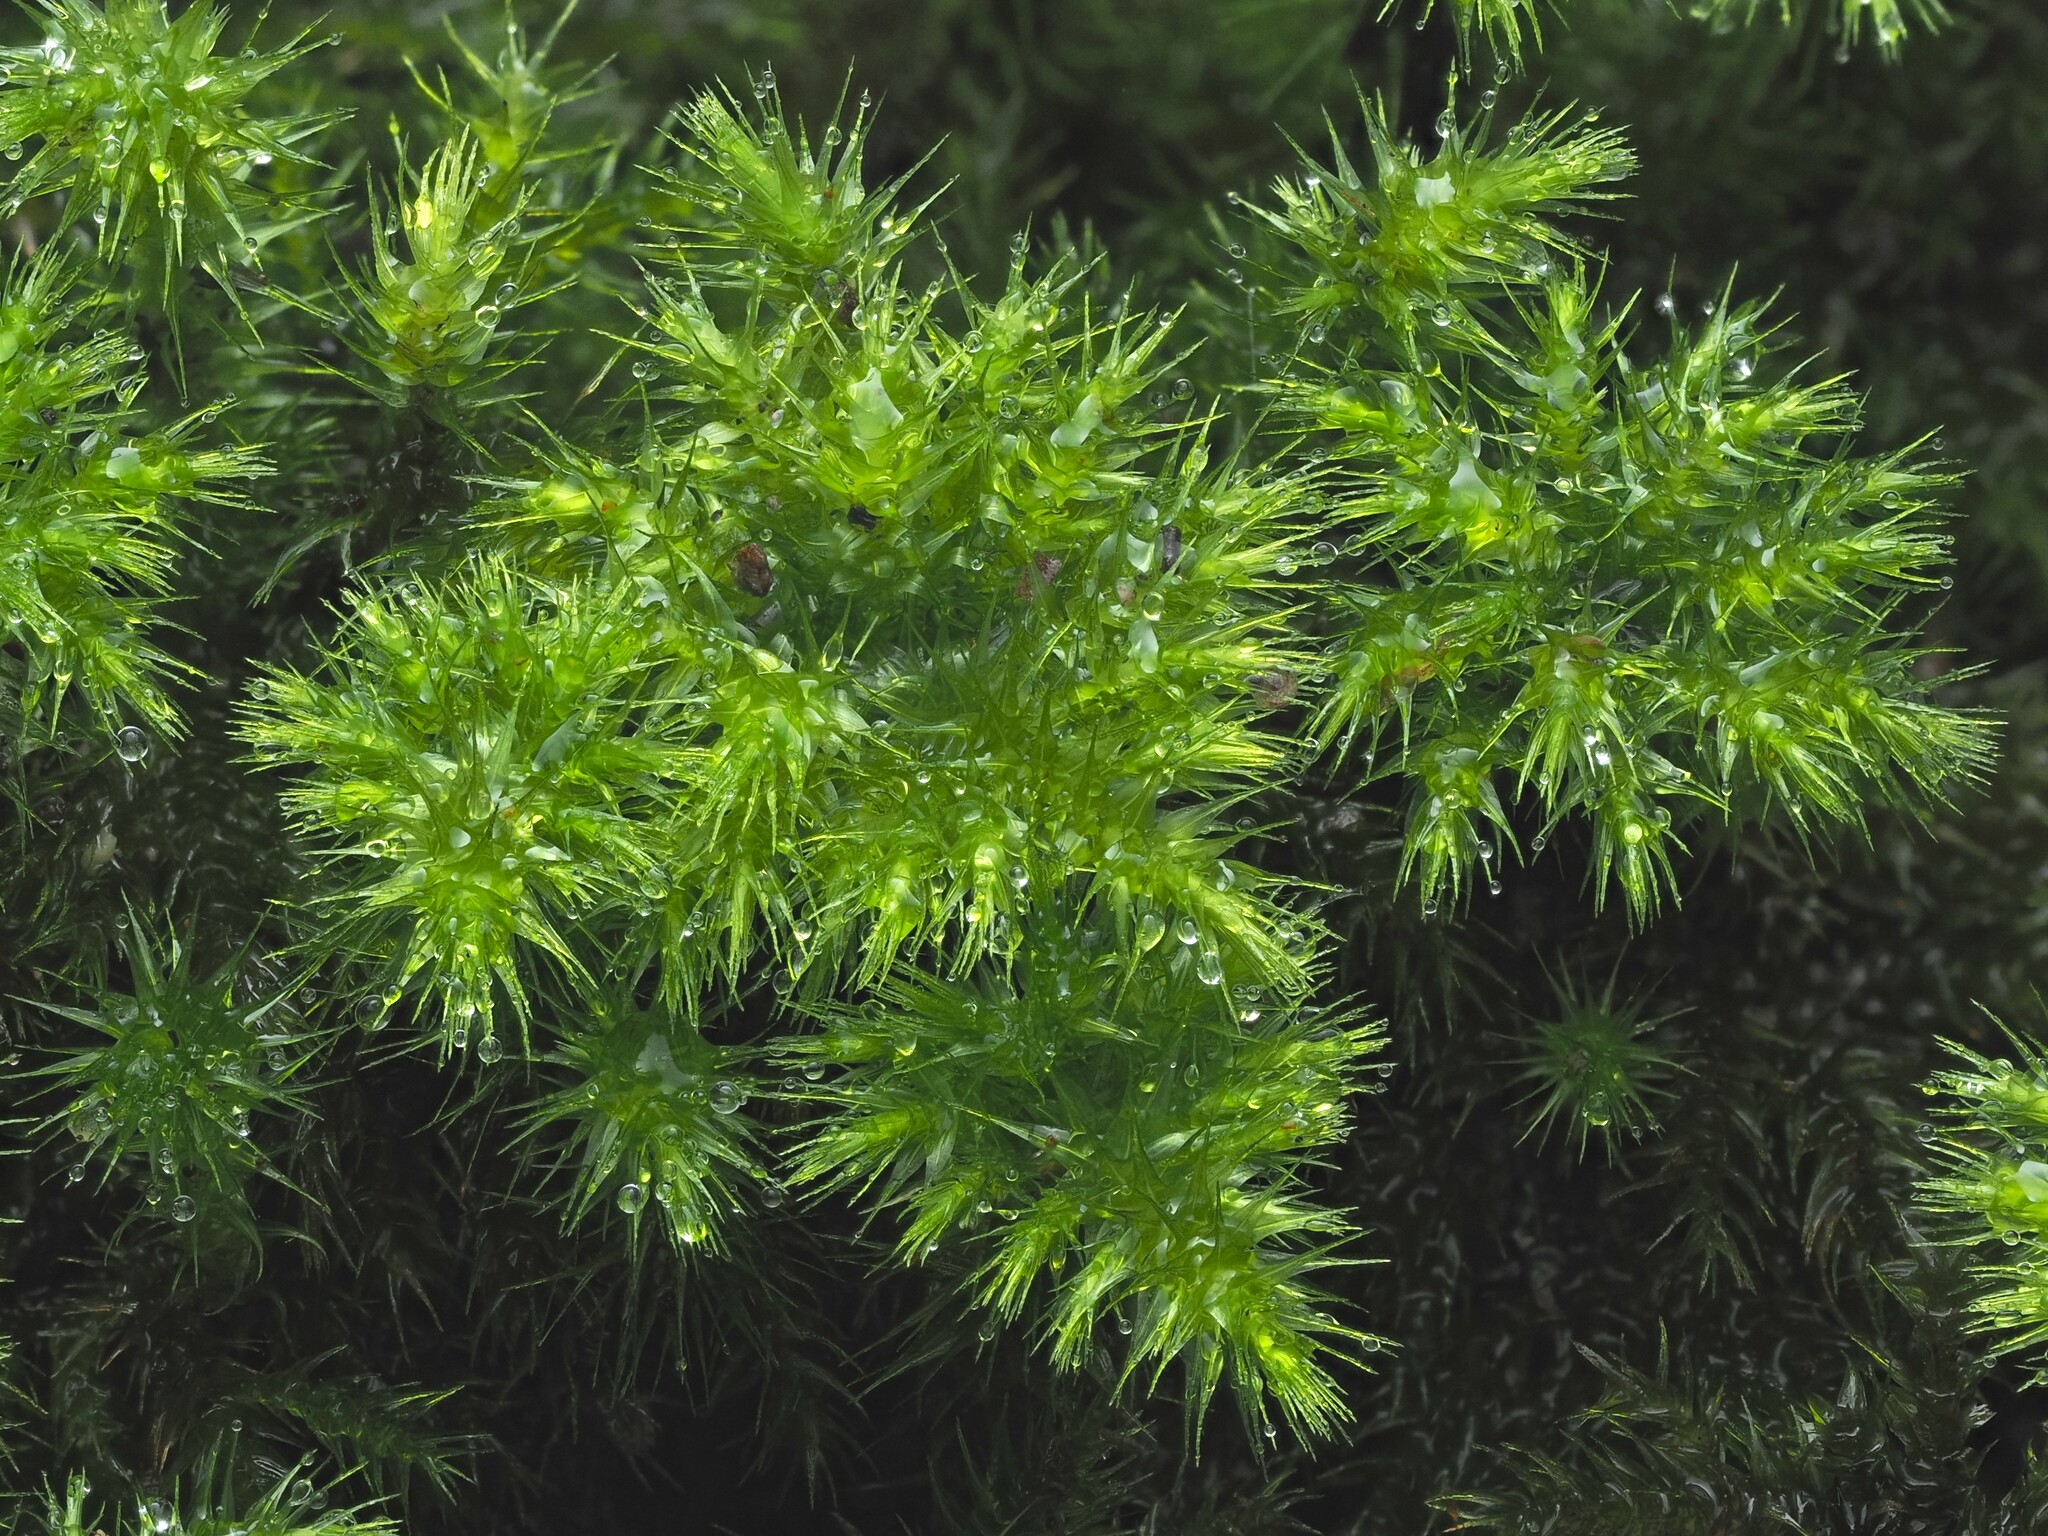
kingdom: Plantae
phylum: Bryophyta
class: Bryopsida
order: Hypnodendrales
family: Spiridentaceae
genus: Mniodendron
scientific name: Mniodendron colensoi
